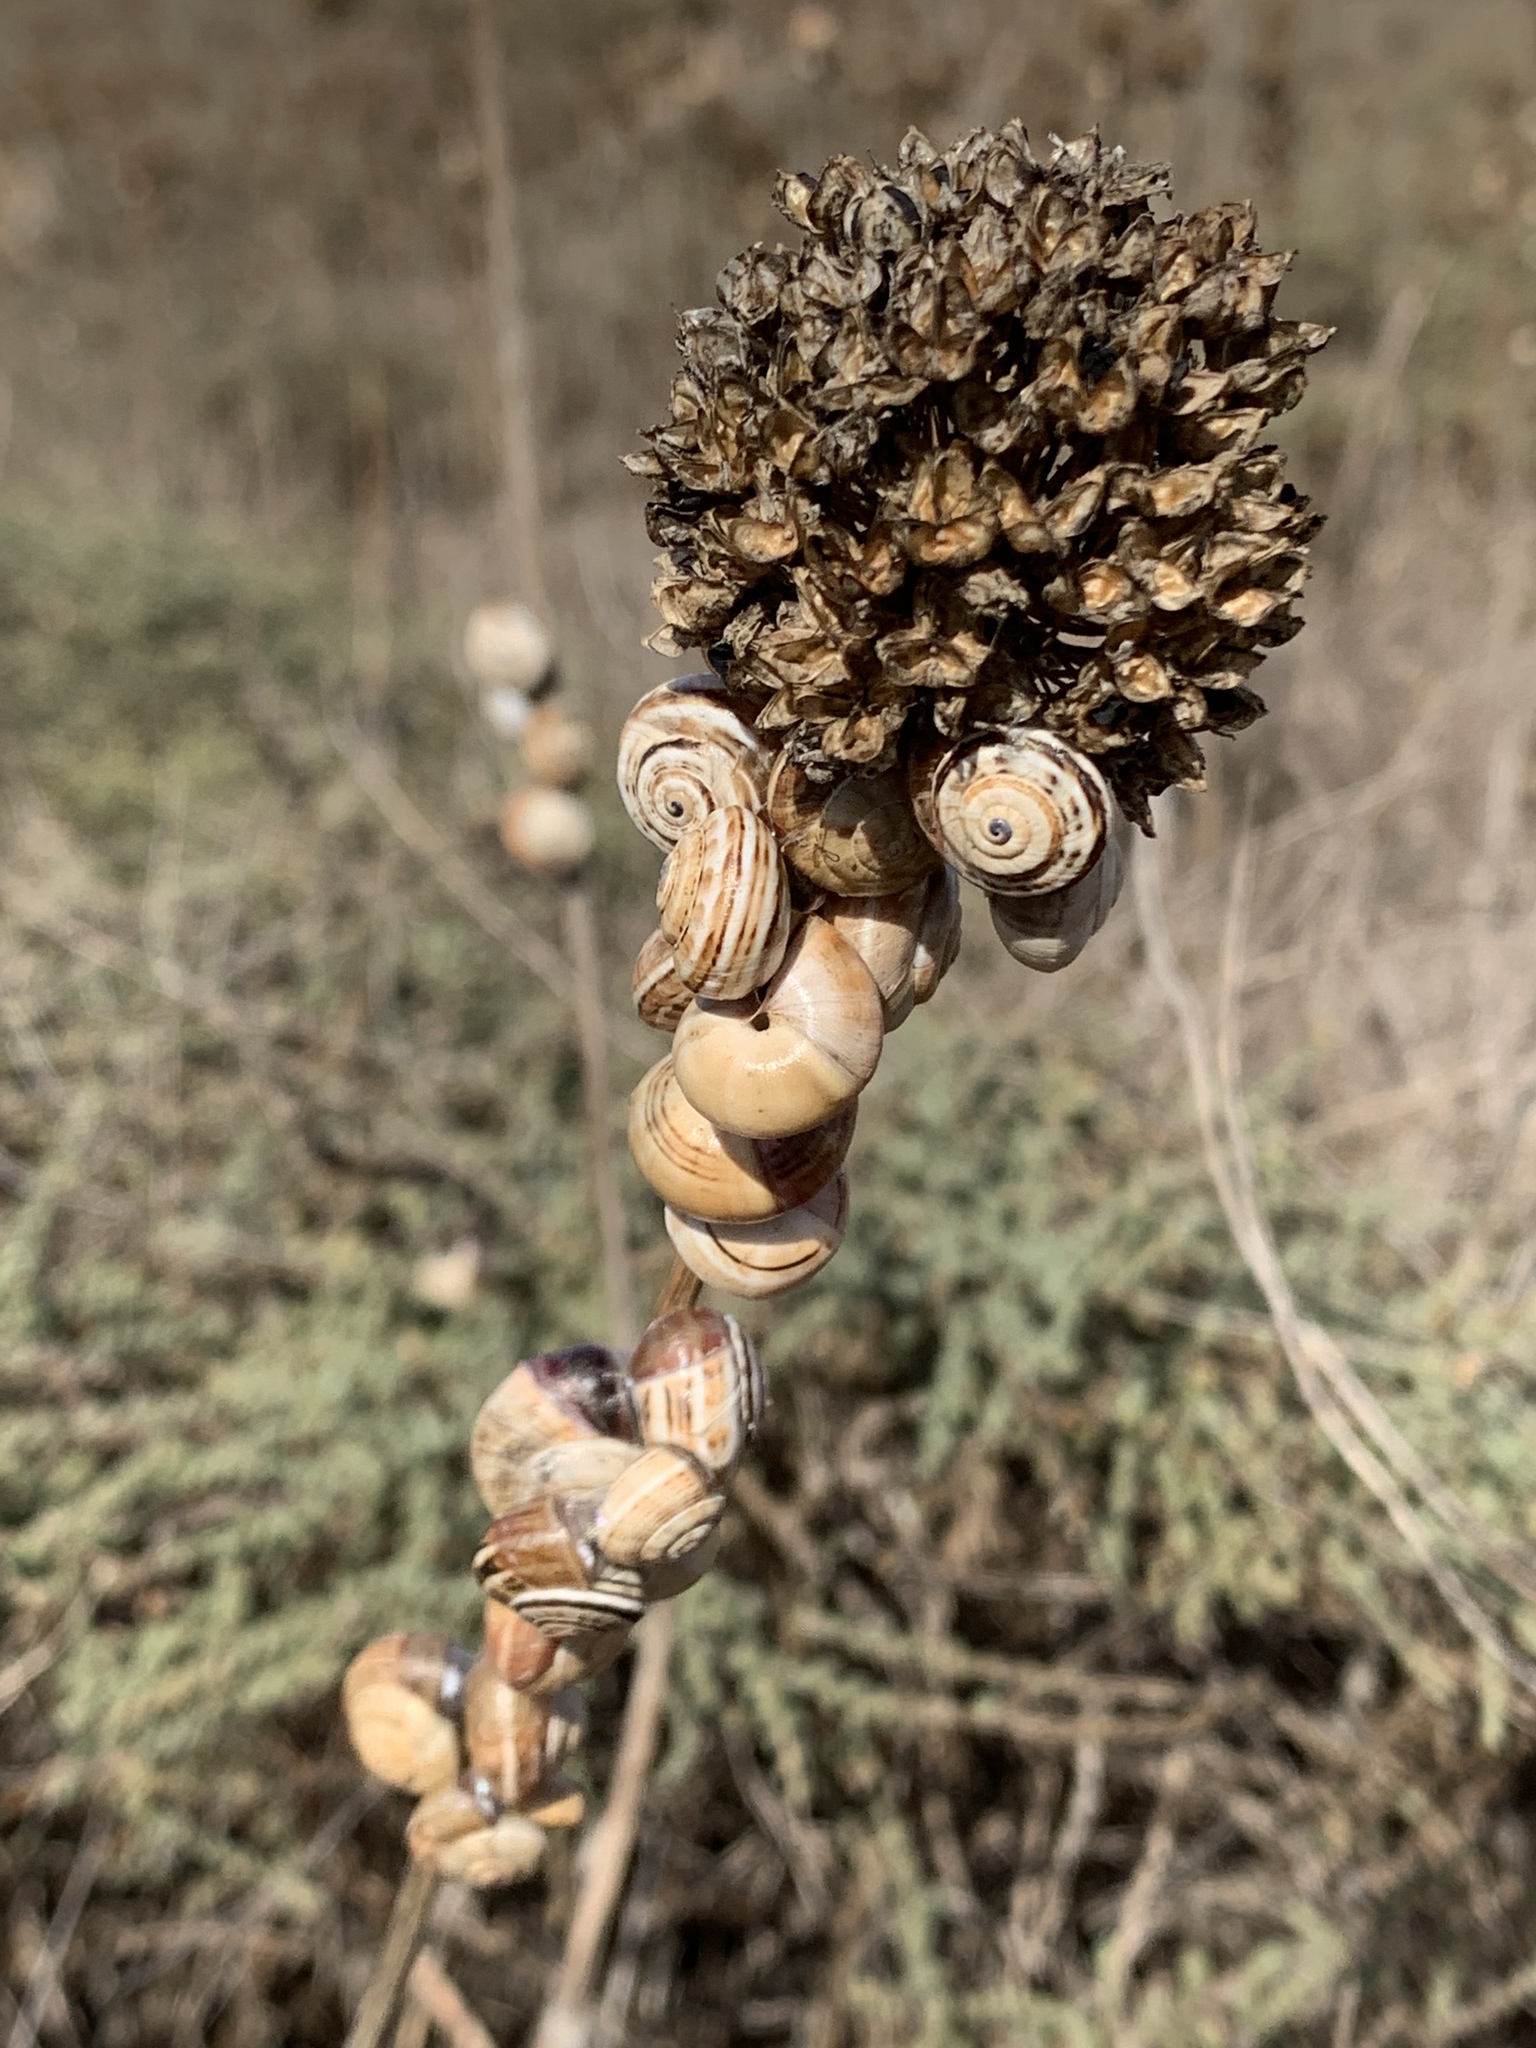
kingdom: Animalia
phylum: Mollusca
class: Gastropoda
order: Stylommatophora
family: Helicidae
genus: Theba
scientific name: Theba pisana
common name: White snail
